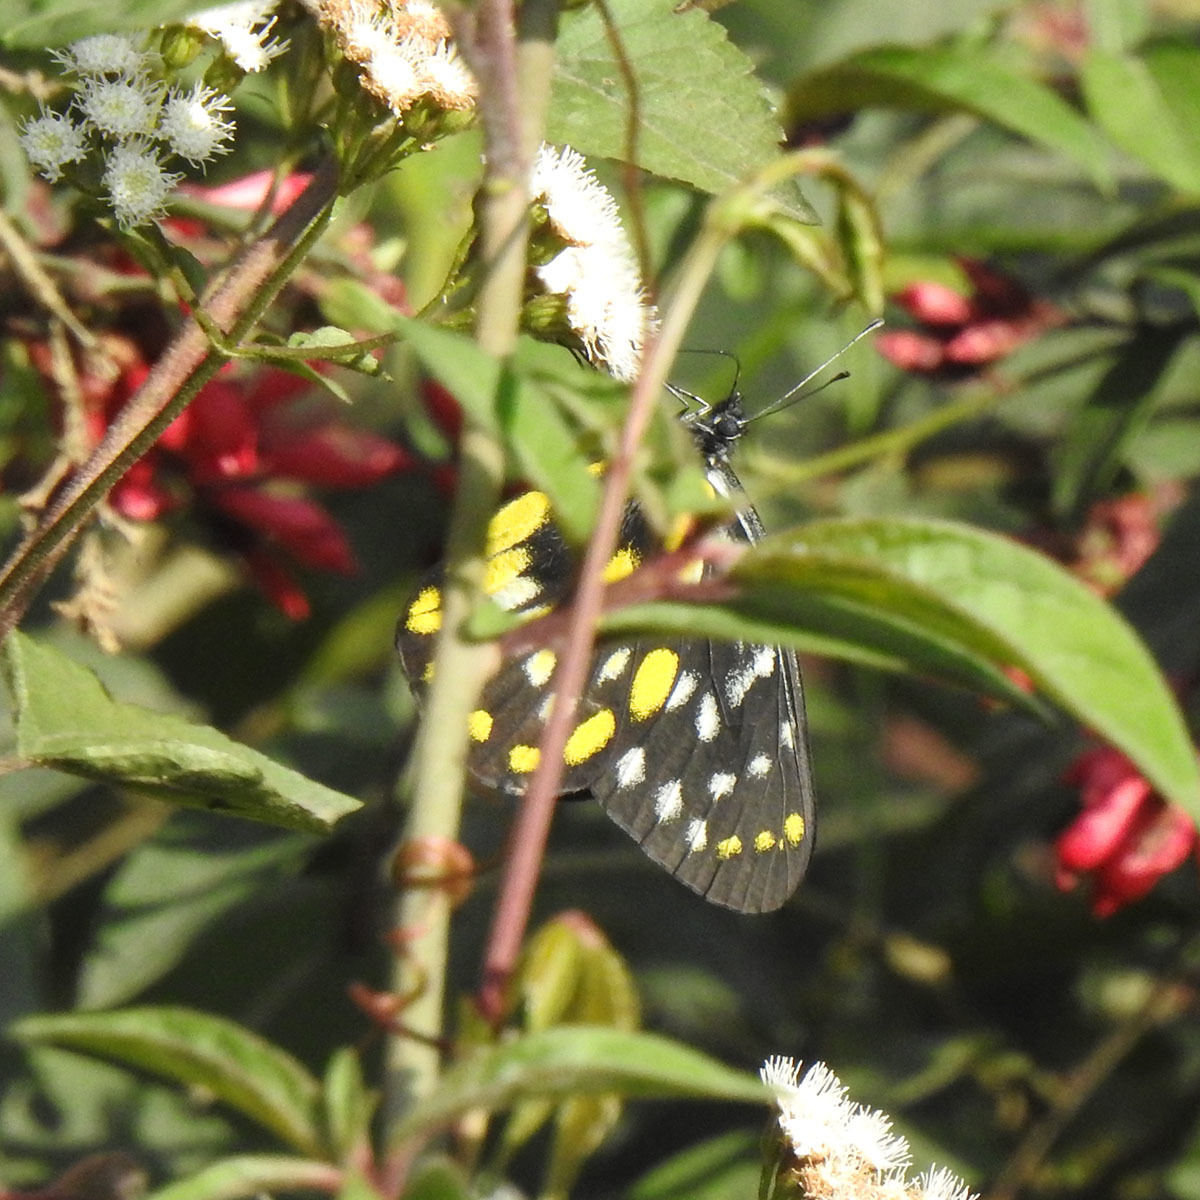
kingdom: Animalia
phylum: Arthropoda
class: Insecta
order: Lepidoptera
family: Pieridae
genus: Delias
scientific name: Delias belladonna
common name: Hill jezebel
